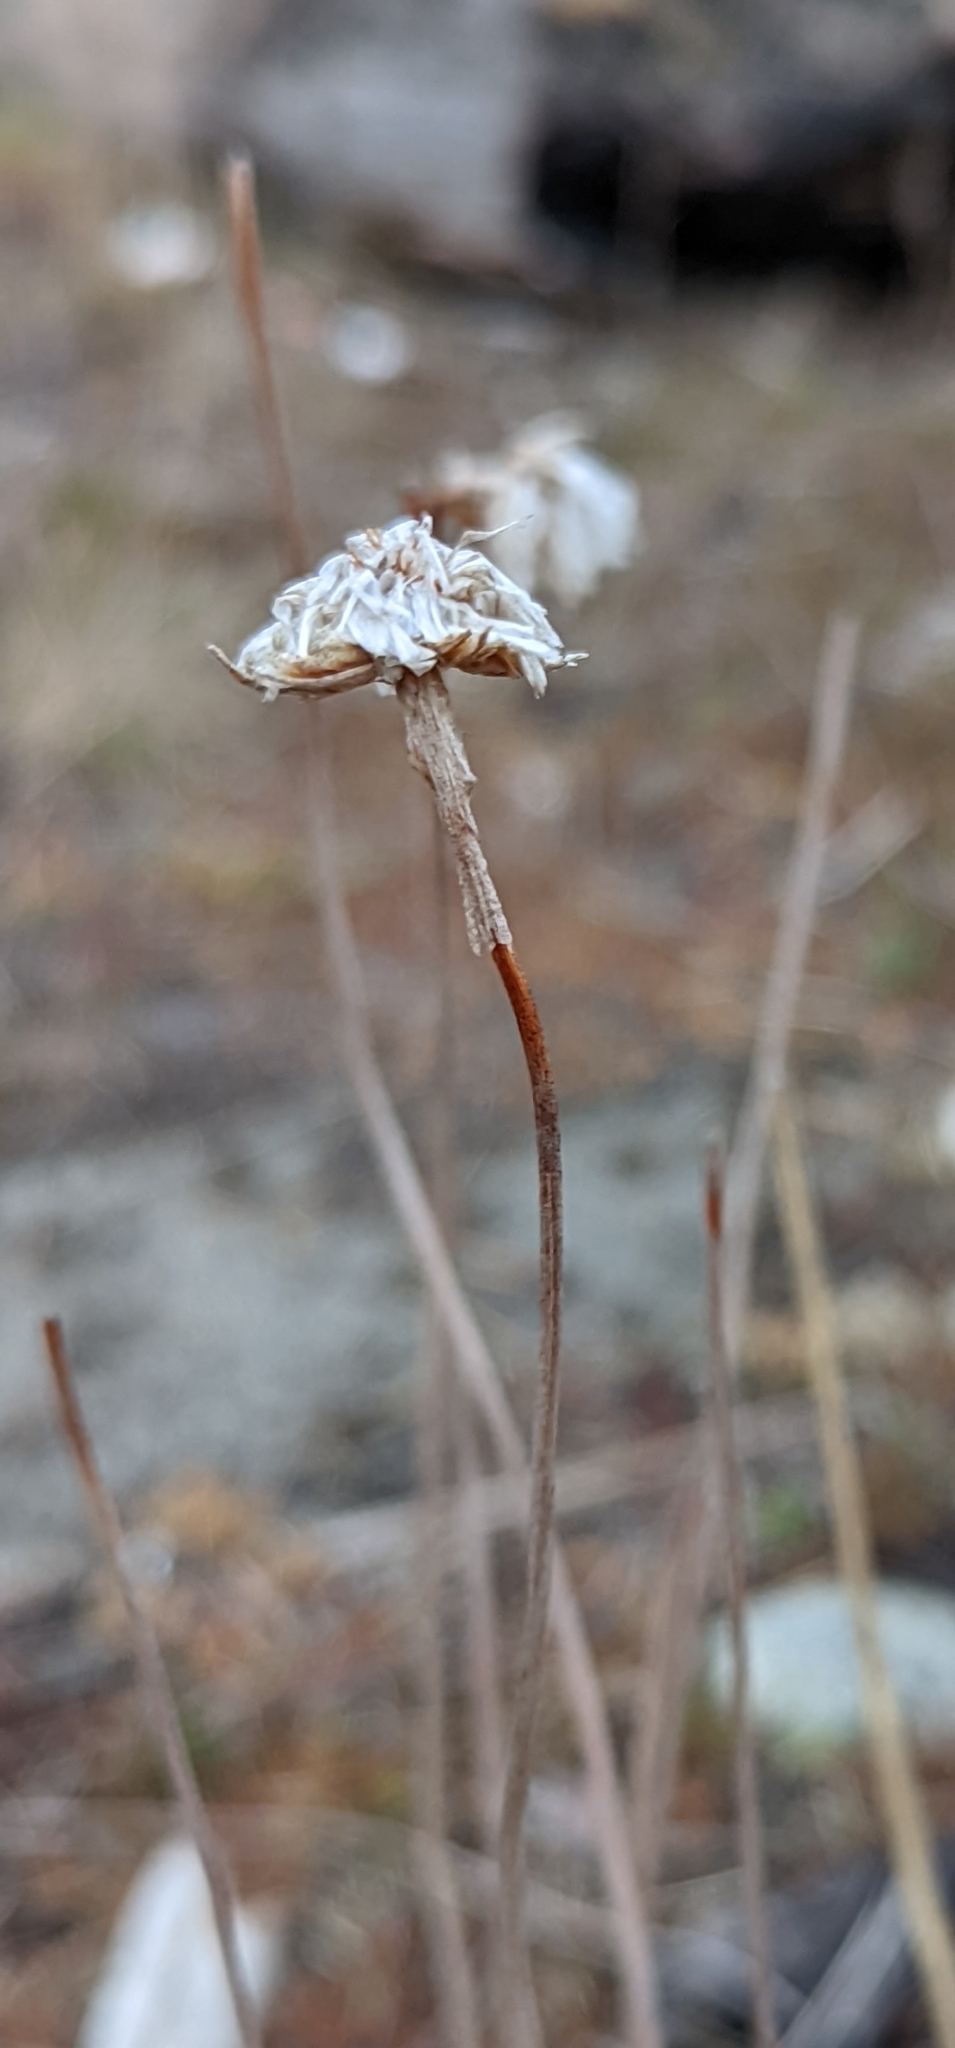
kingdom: Plantae
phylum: Tracheophyta
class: Magnoliopsida
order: Caryophyllales
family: Plumbaginaceae
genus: Armeria
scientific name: Armeria maritima
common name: Thrift
